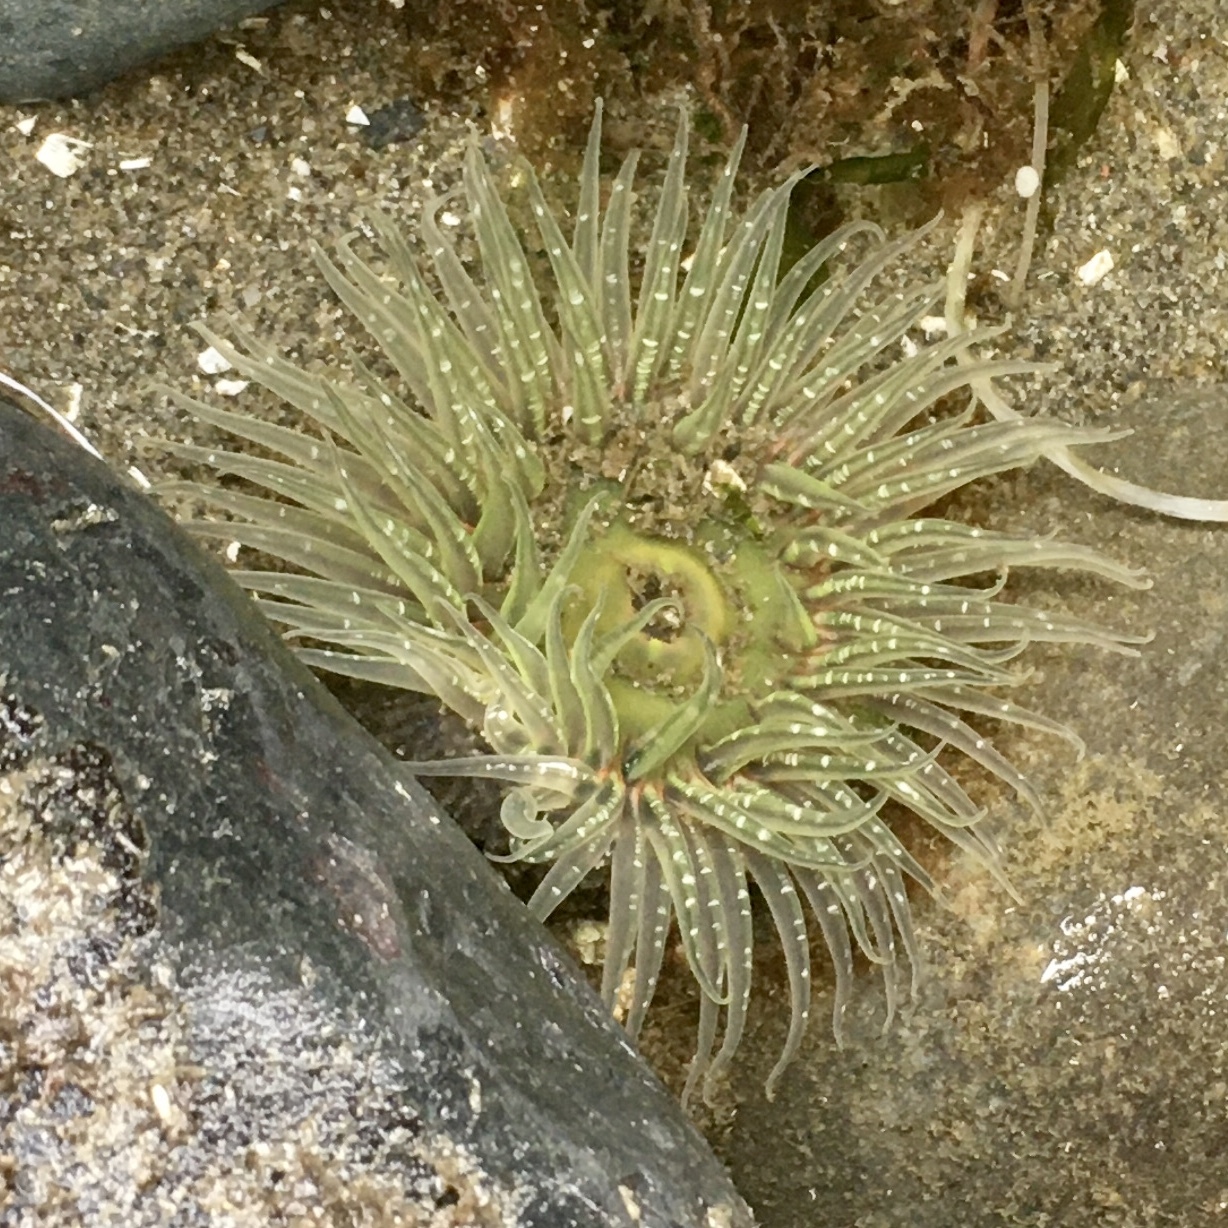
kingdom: Animalia
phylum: Cnidaria
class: Anthozoa
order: Actiniaria
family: Actiniidae
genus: Anthopleura
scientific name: Anthopleura artemisia
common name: Buried sea anemone
